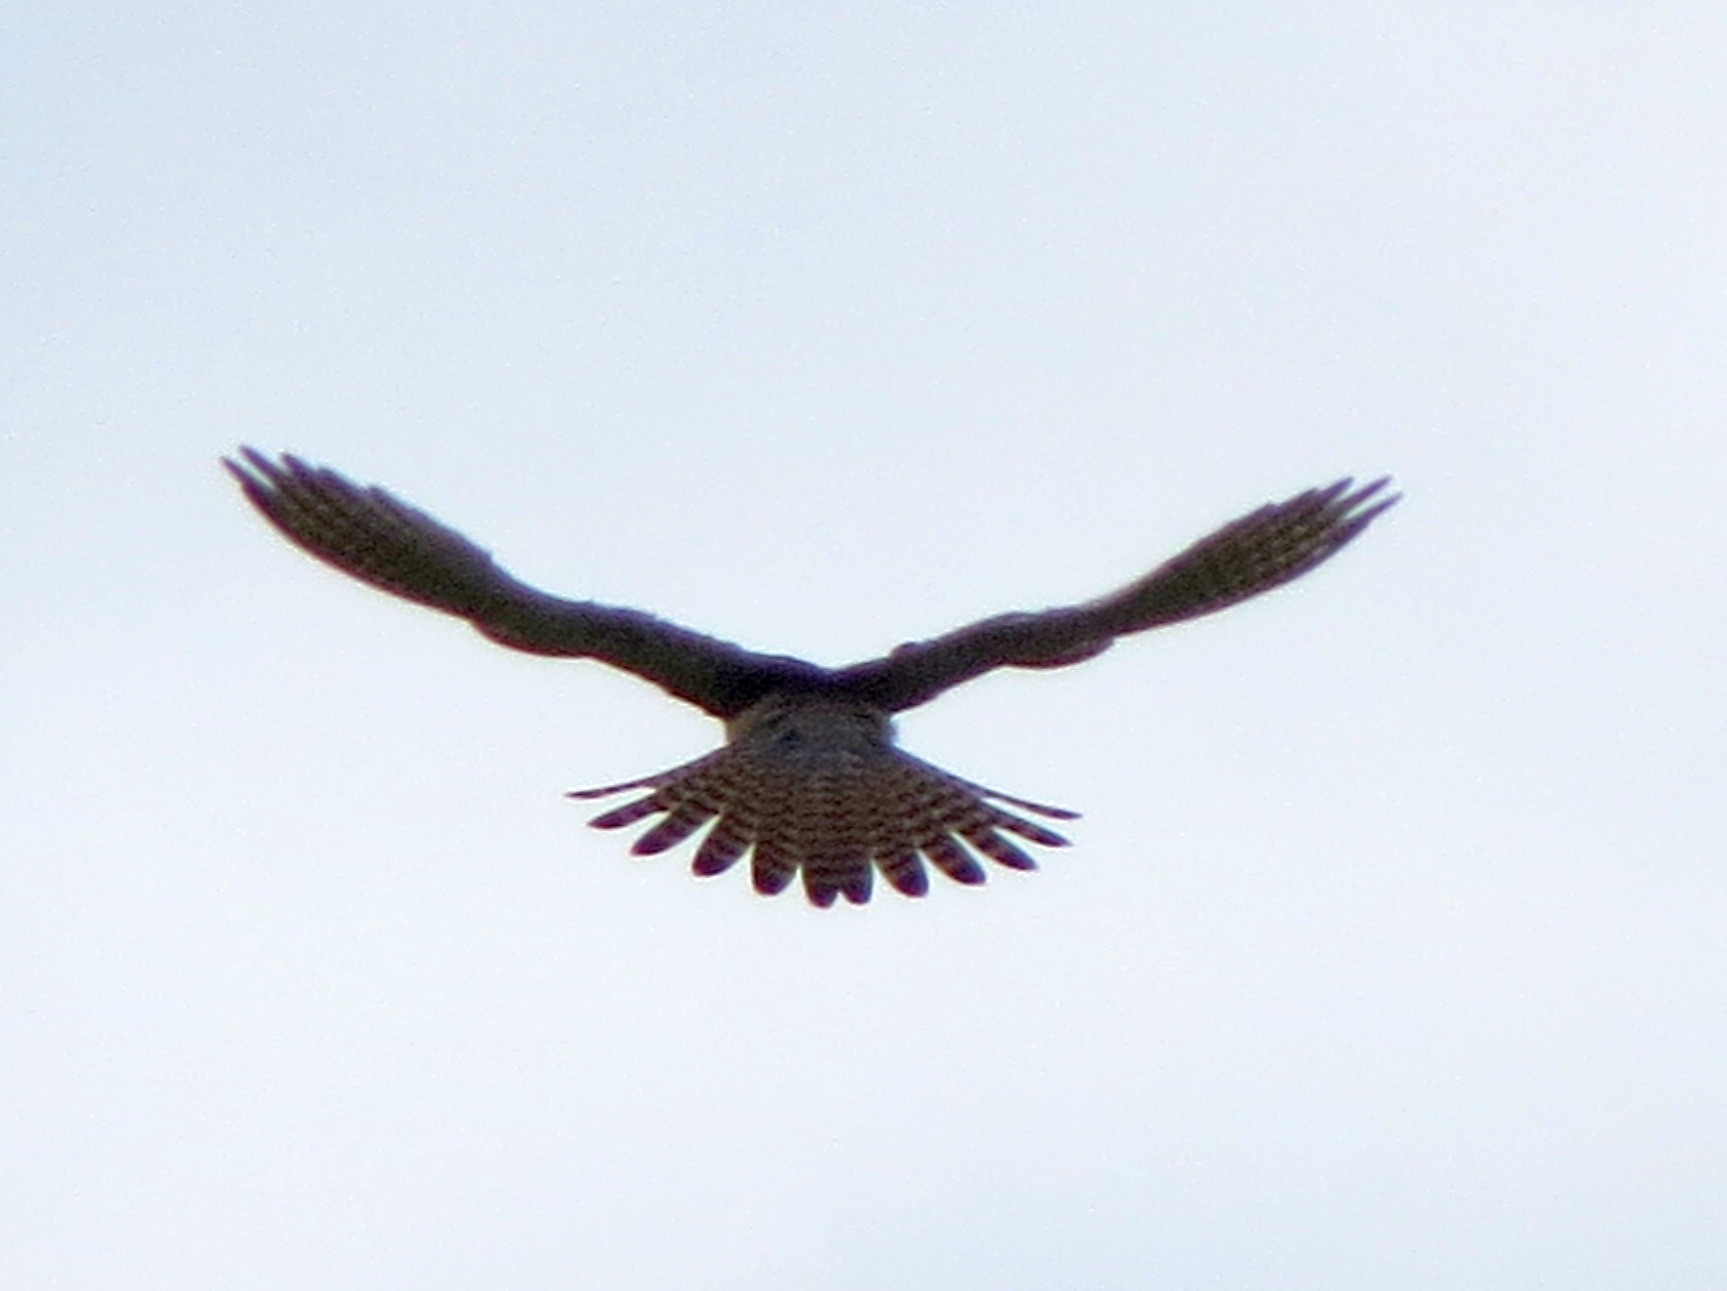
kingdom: Animalia
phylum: Chordata
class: Aves
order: Falconiformes
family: Falconidae
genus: Falco
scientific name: Falco tinnunculus
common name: Common kestrel
